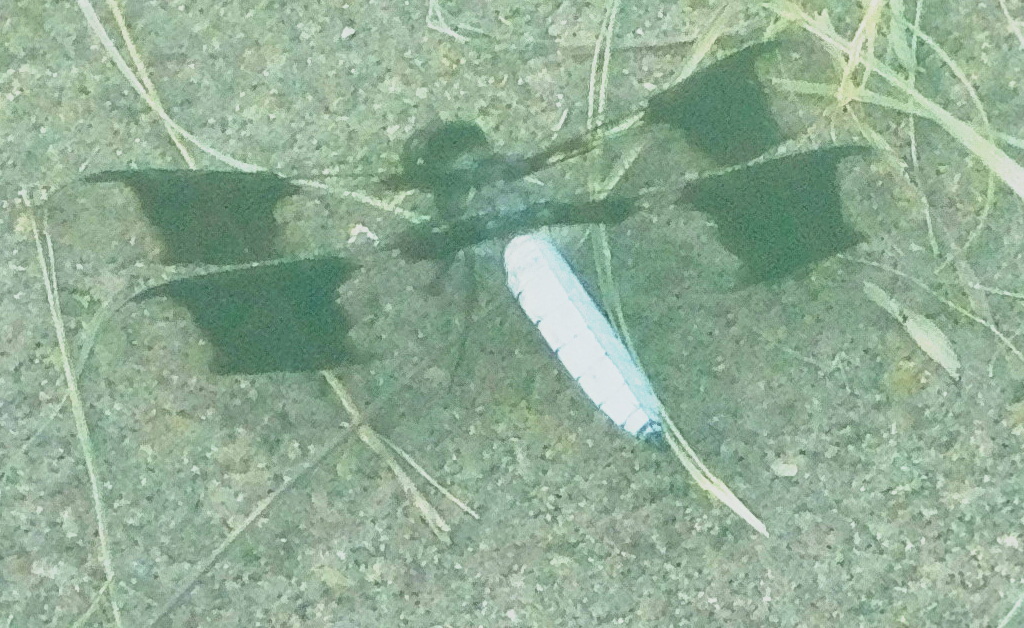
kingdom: Animalia
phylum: Arthropoda
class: Insecta
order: Odonata
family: Libellulidae
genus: Plathemis
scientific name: Plathemis lydia
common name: Common whitetail
